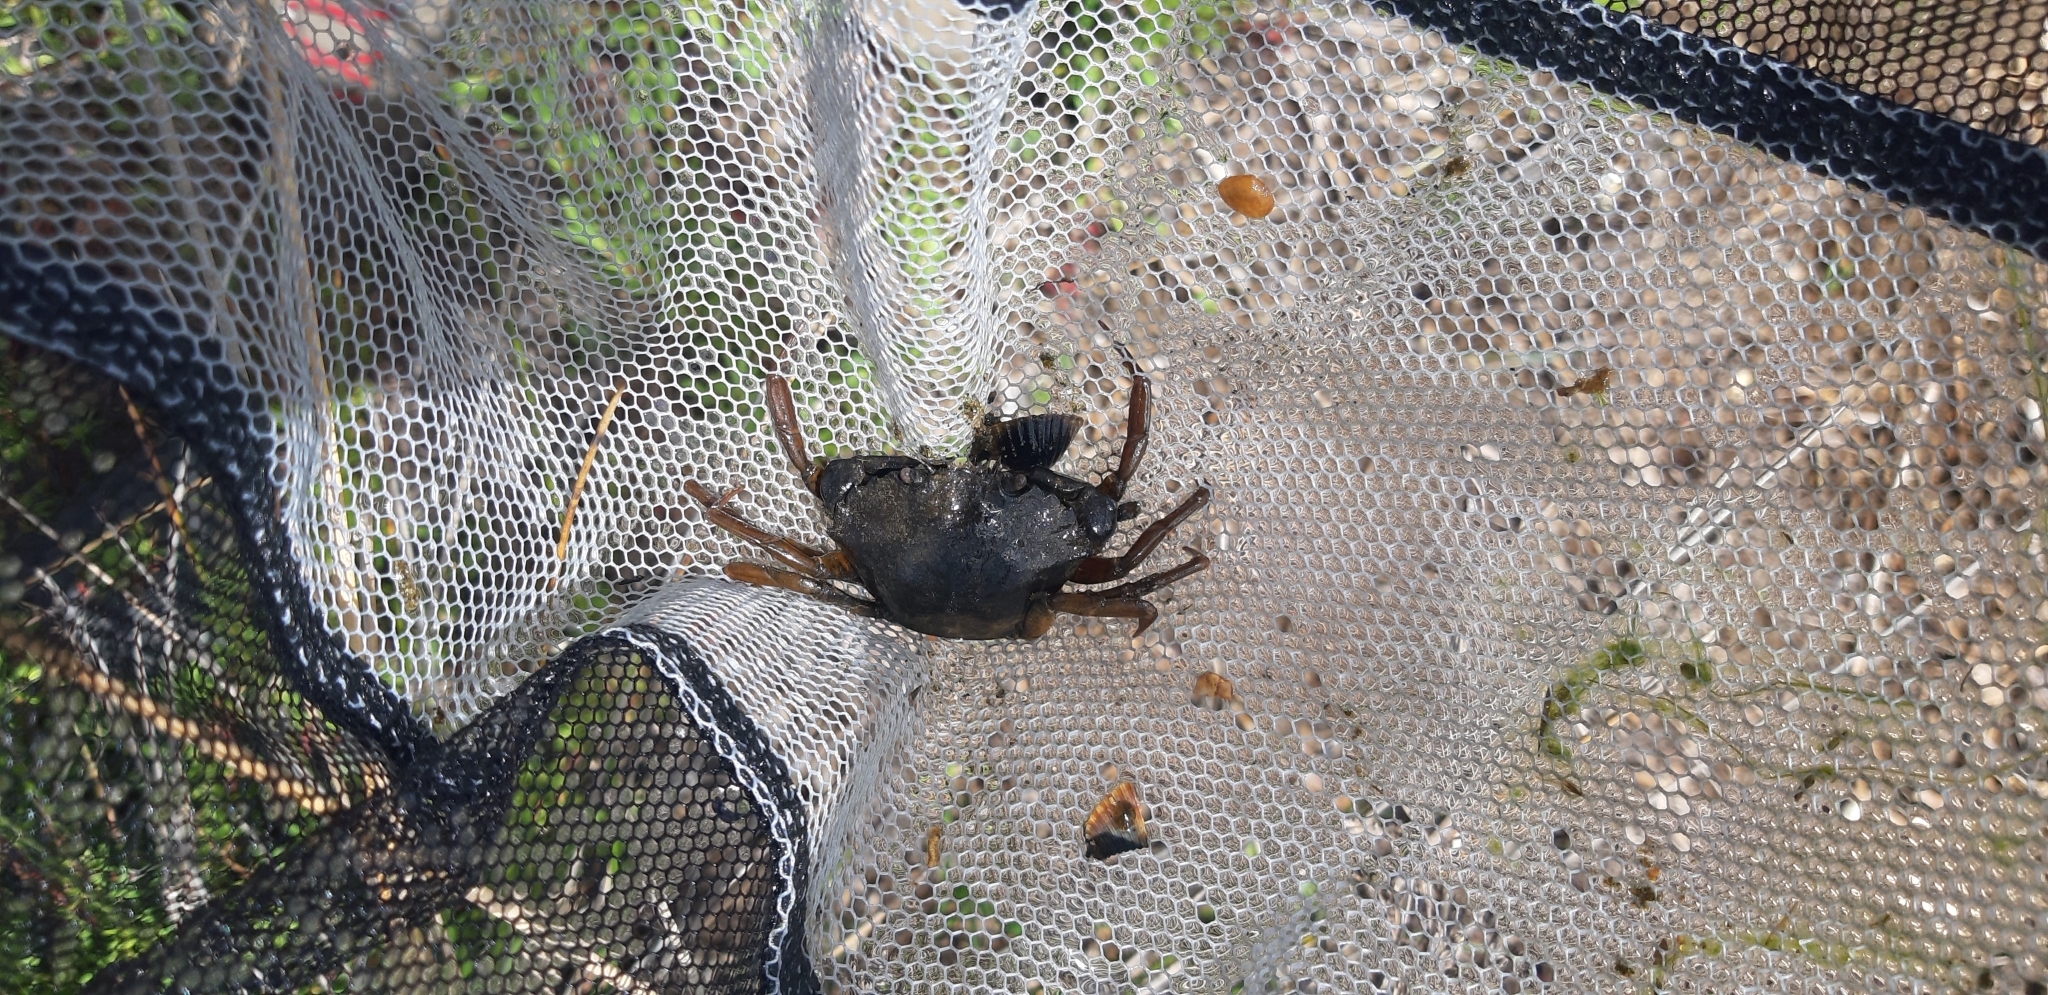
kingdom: Animalia
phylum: Arthropoda
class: Malacostraca
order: Decapoda
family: Carcinidae
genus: Carcinus
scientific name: Carcinus aestuarii
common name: Mediterranean green crab
